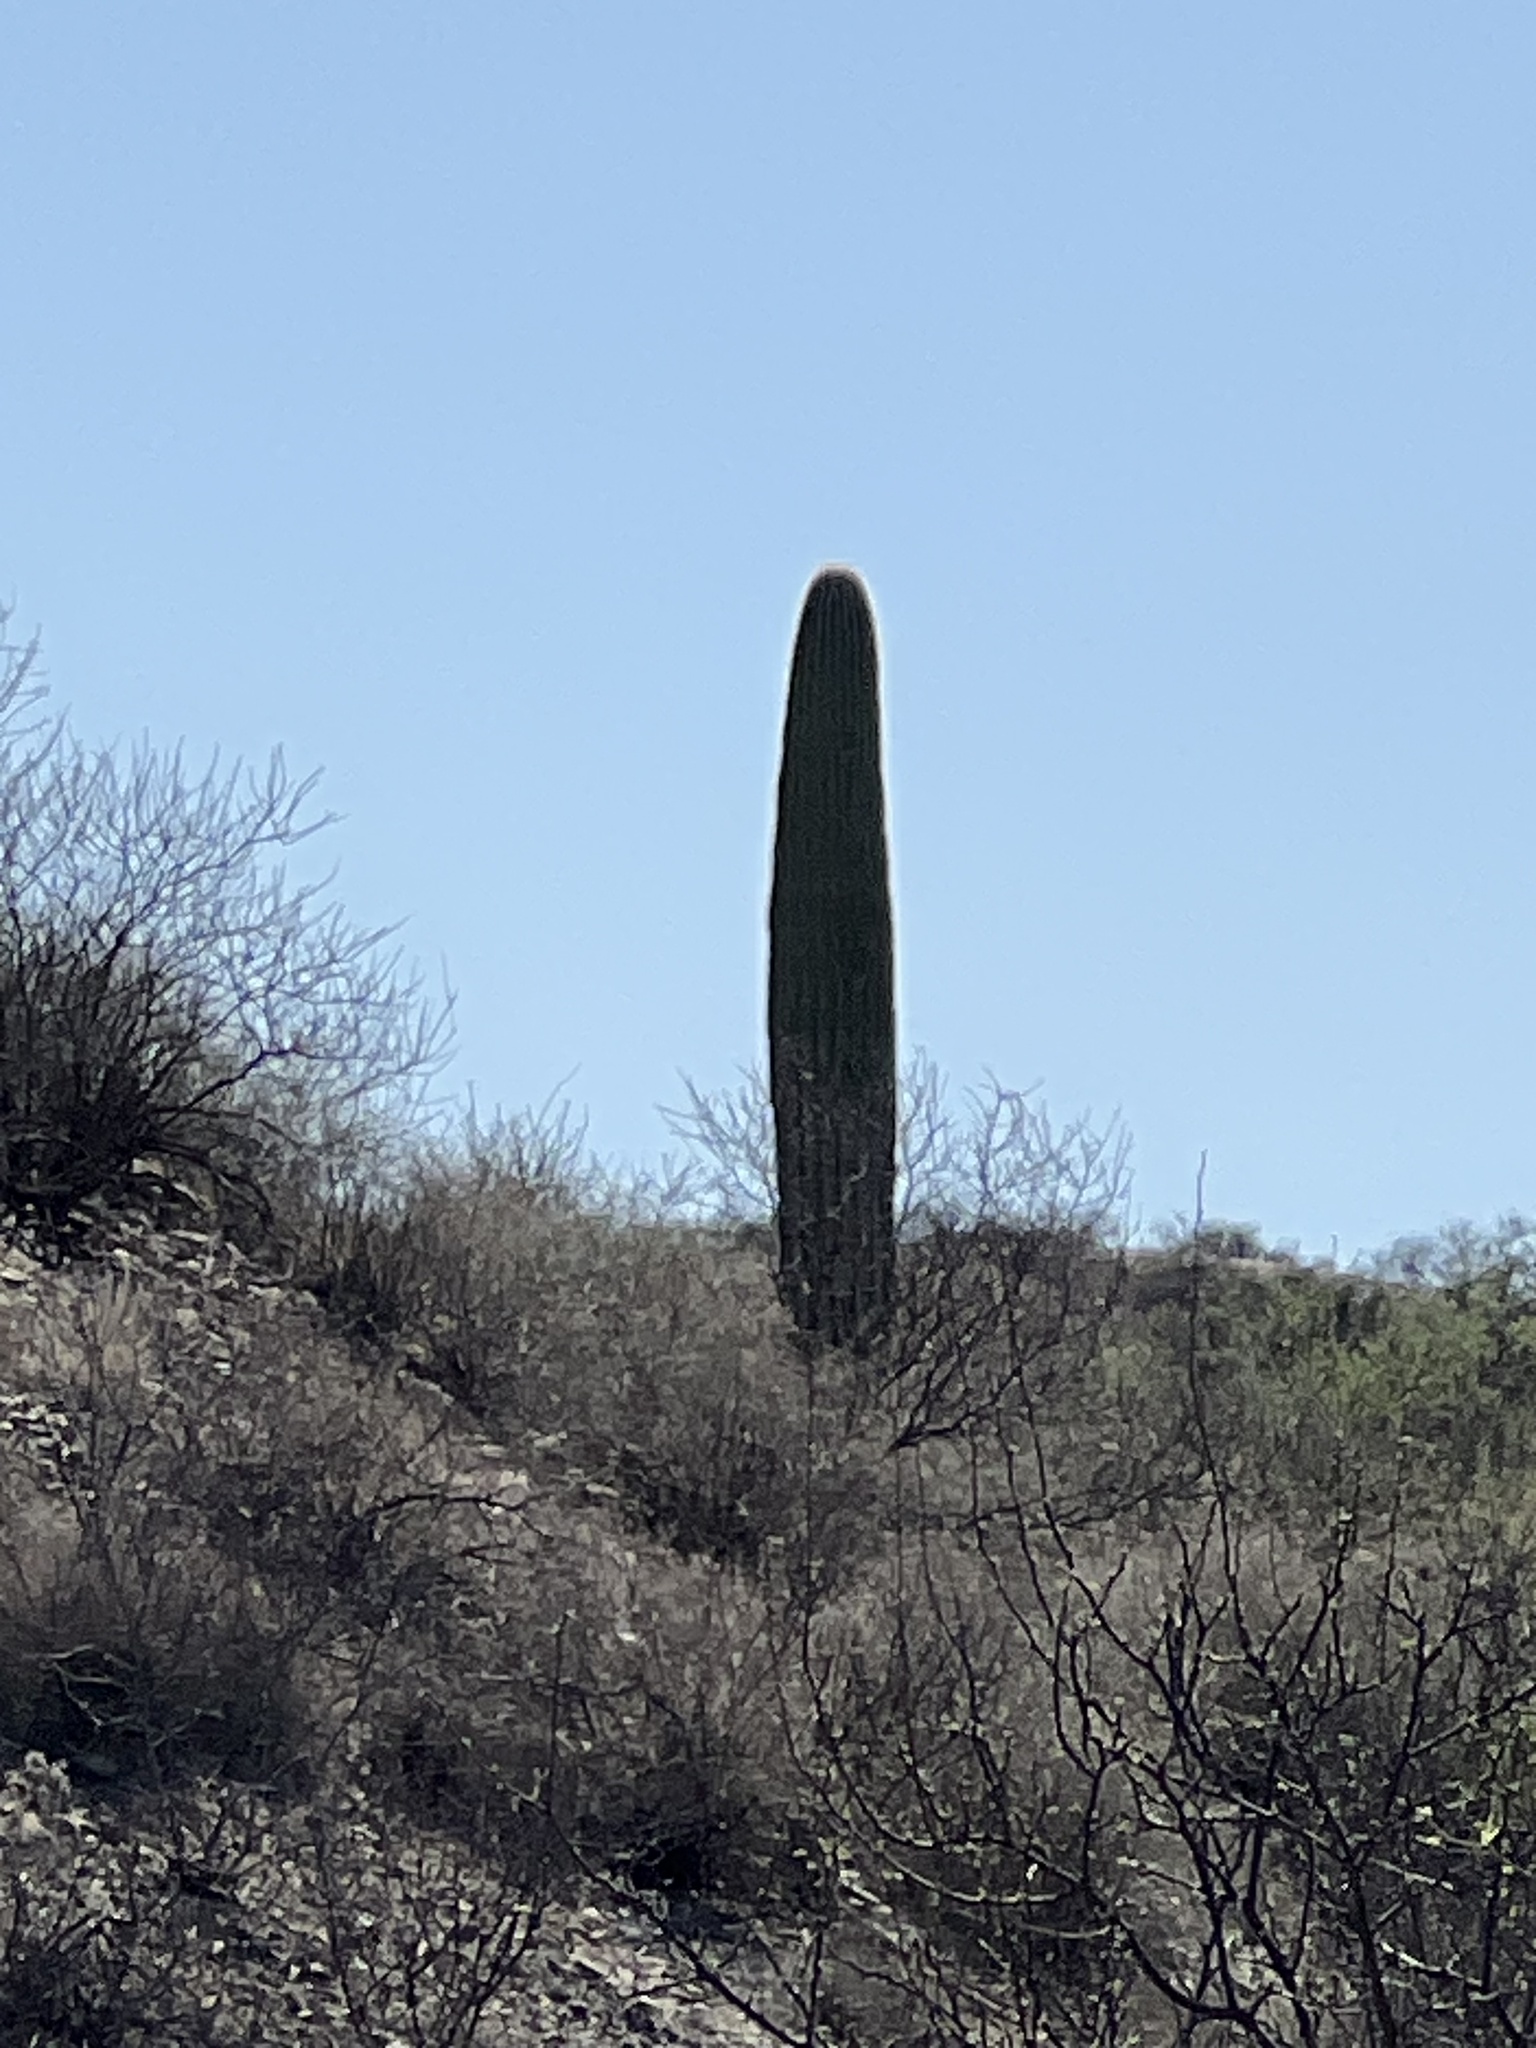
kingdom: Plantae
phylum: Tracheophyta
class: Magnoliopsida
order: Caryophyllales
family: Cactaceae
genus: Carnegiea
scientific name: Carnegiea gigantea
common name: Saguaro
